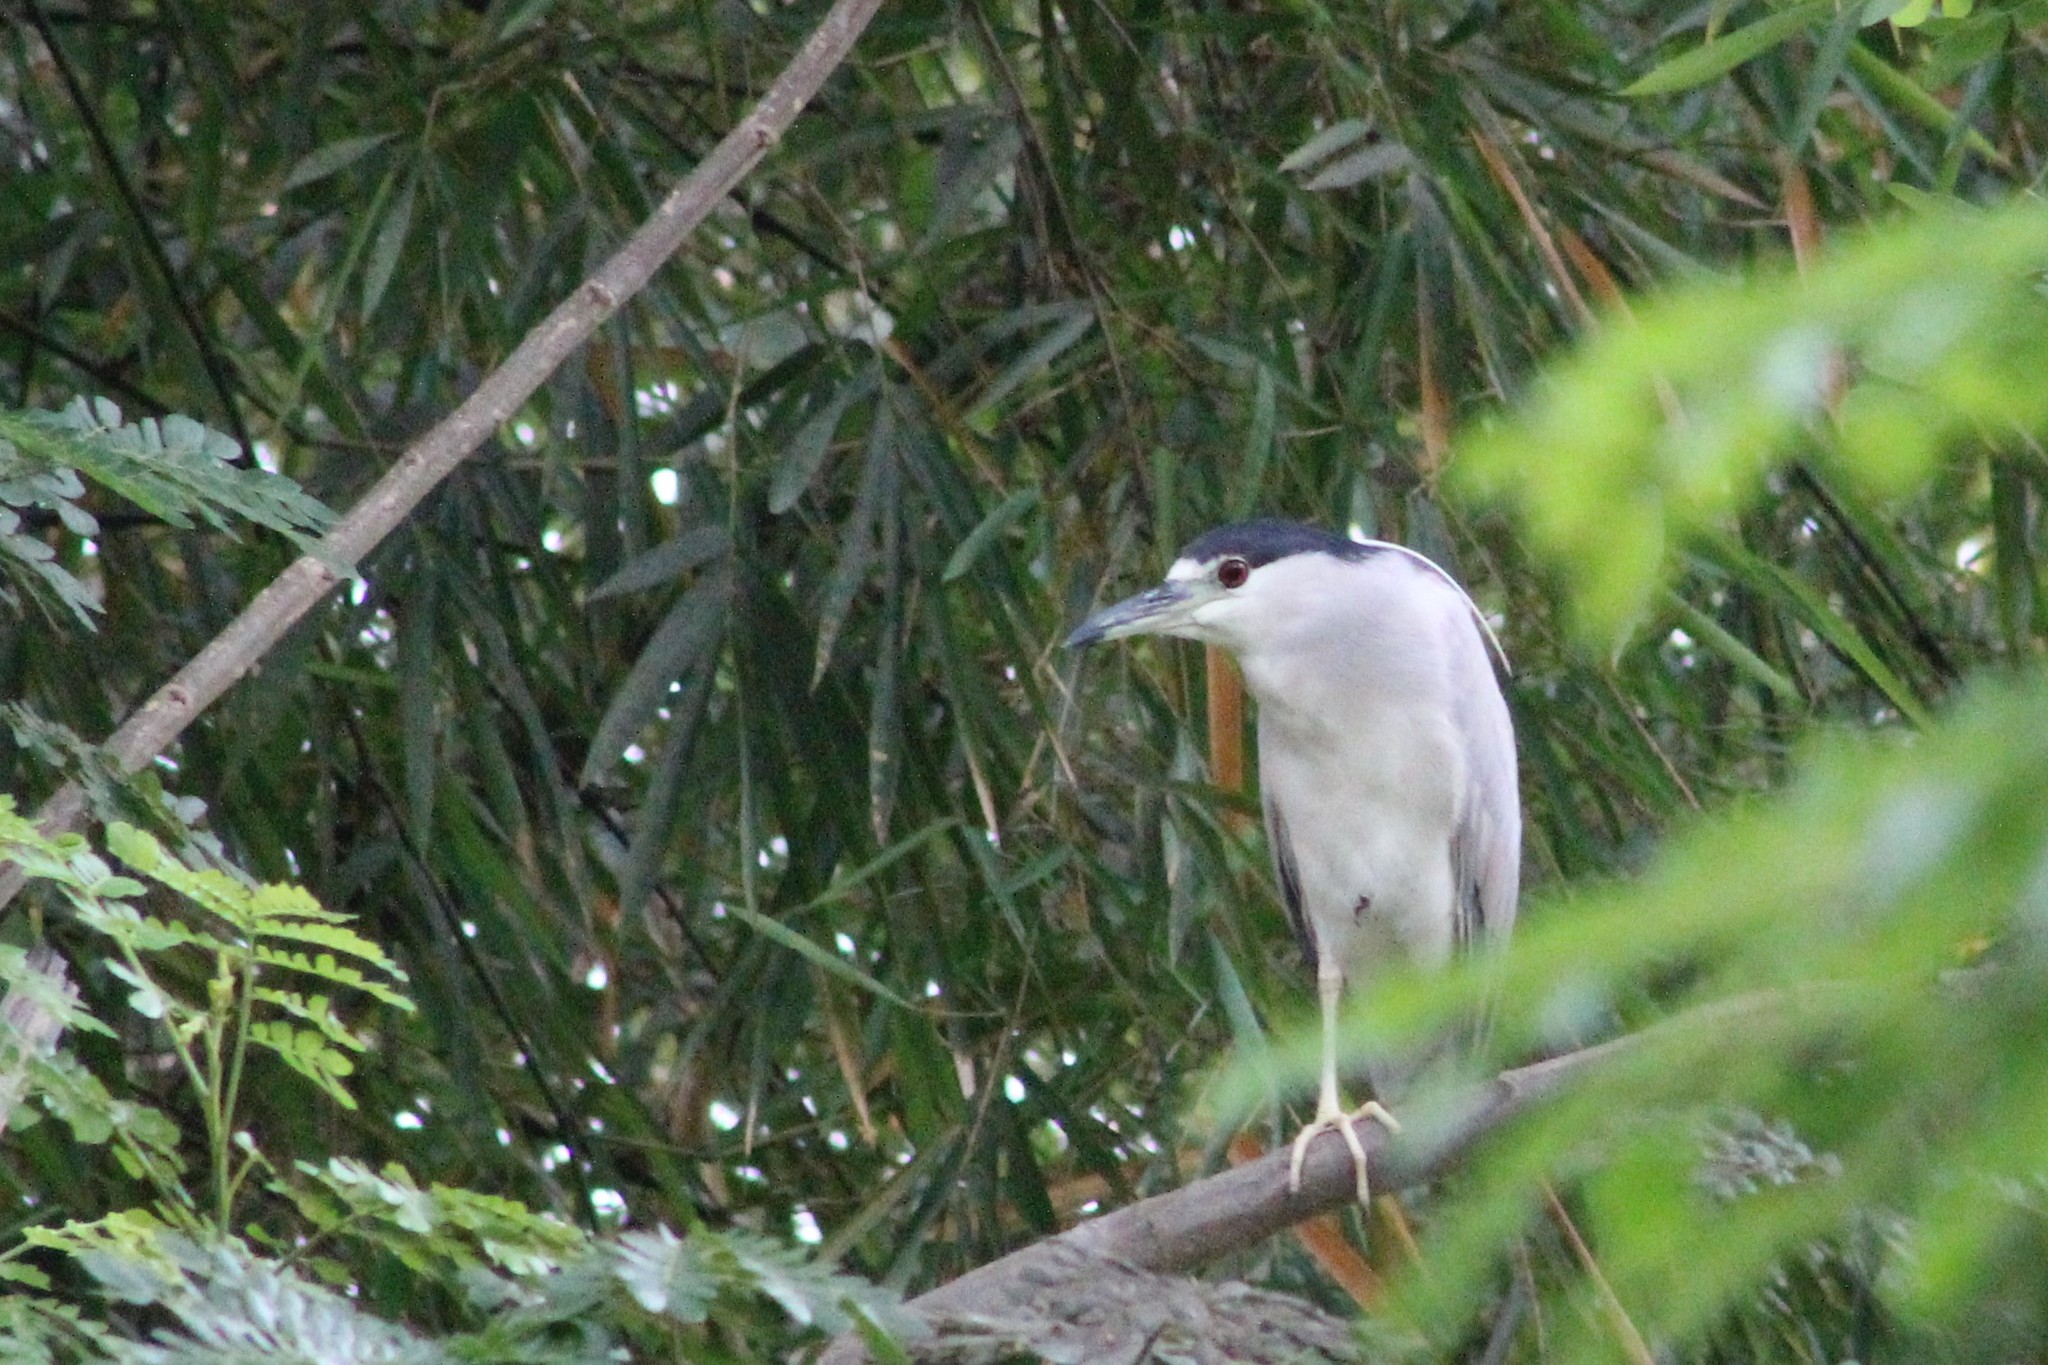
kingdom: Animalia
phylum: Chordata
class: Aves
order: Pelecaniformes
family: Ardeidae
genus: Nycticorax
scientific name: Nycticorax nycticorax
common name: Black-crowned night heron
